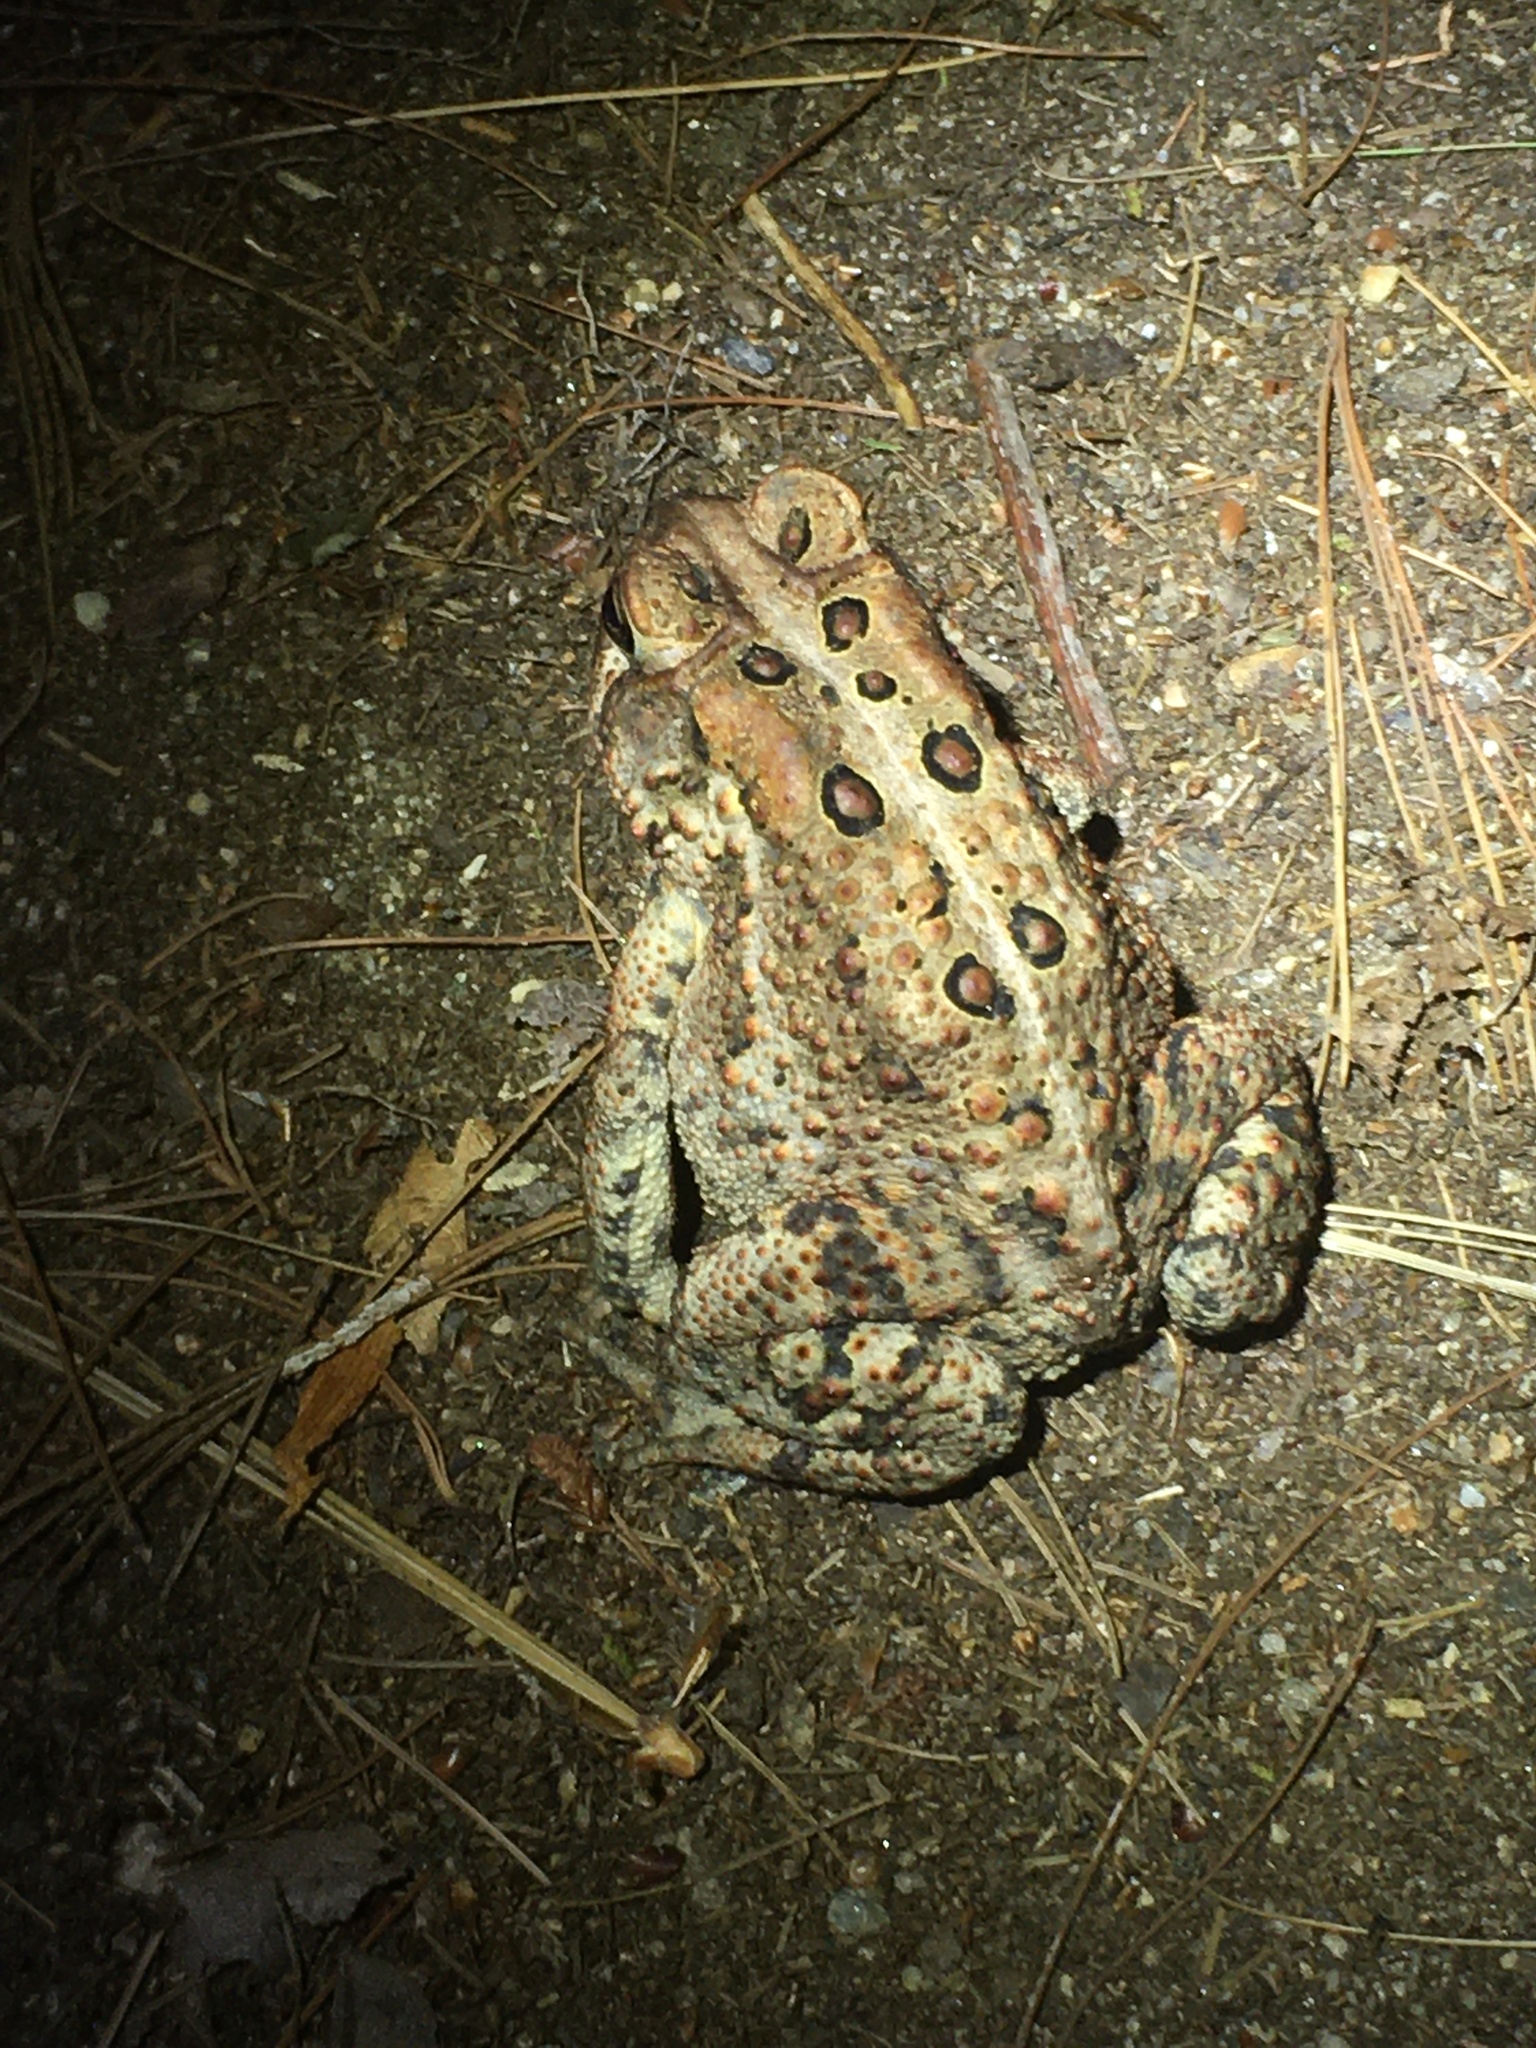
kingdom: Animalia
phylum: Chordata
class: Amphibia
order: Anura
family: Bufonidae
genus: Anaxyrus
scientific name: Anaxyrus americanus
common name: American toad
